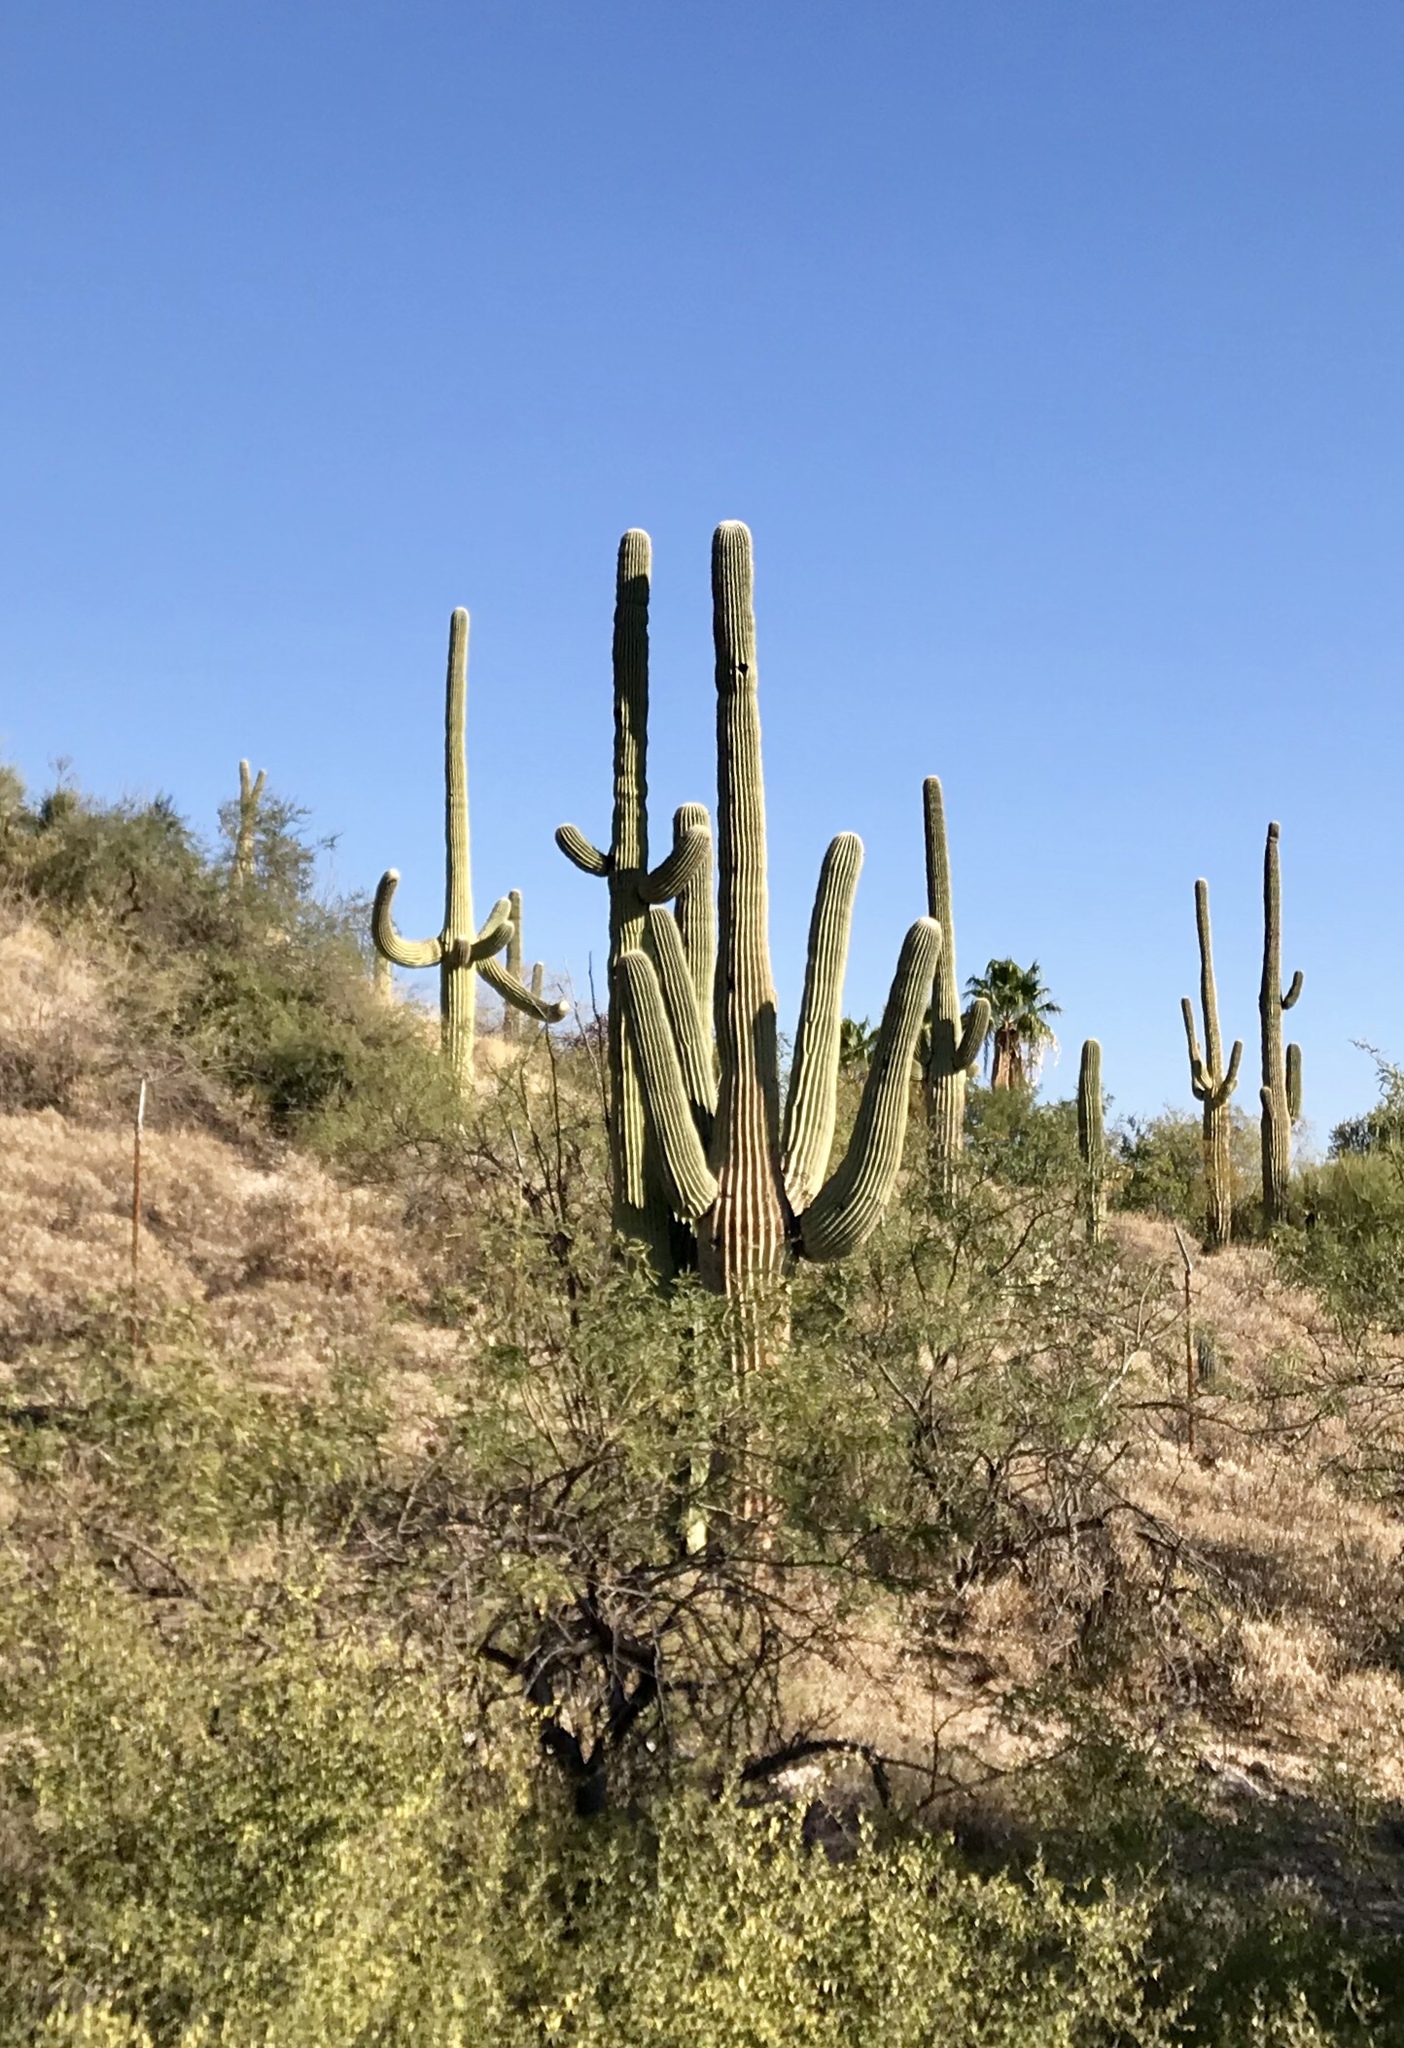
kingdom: Plantae
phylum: Tracheophyta
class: Magnoliopsida
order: Caryophyllales
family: Cactaceae
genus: Carnegiea
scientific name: Carnegiea gigantea
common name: Saguaro
